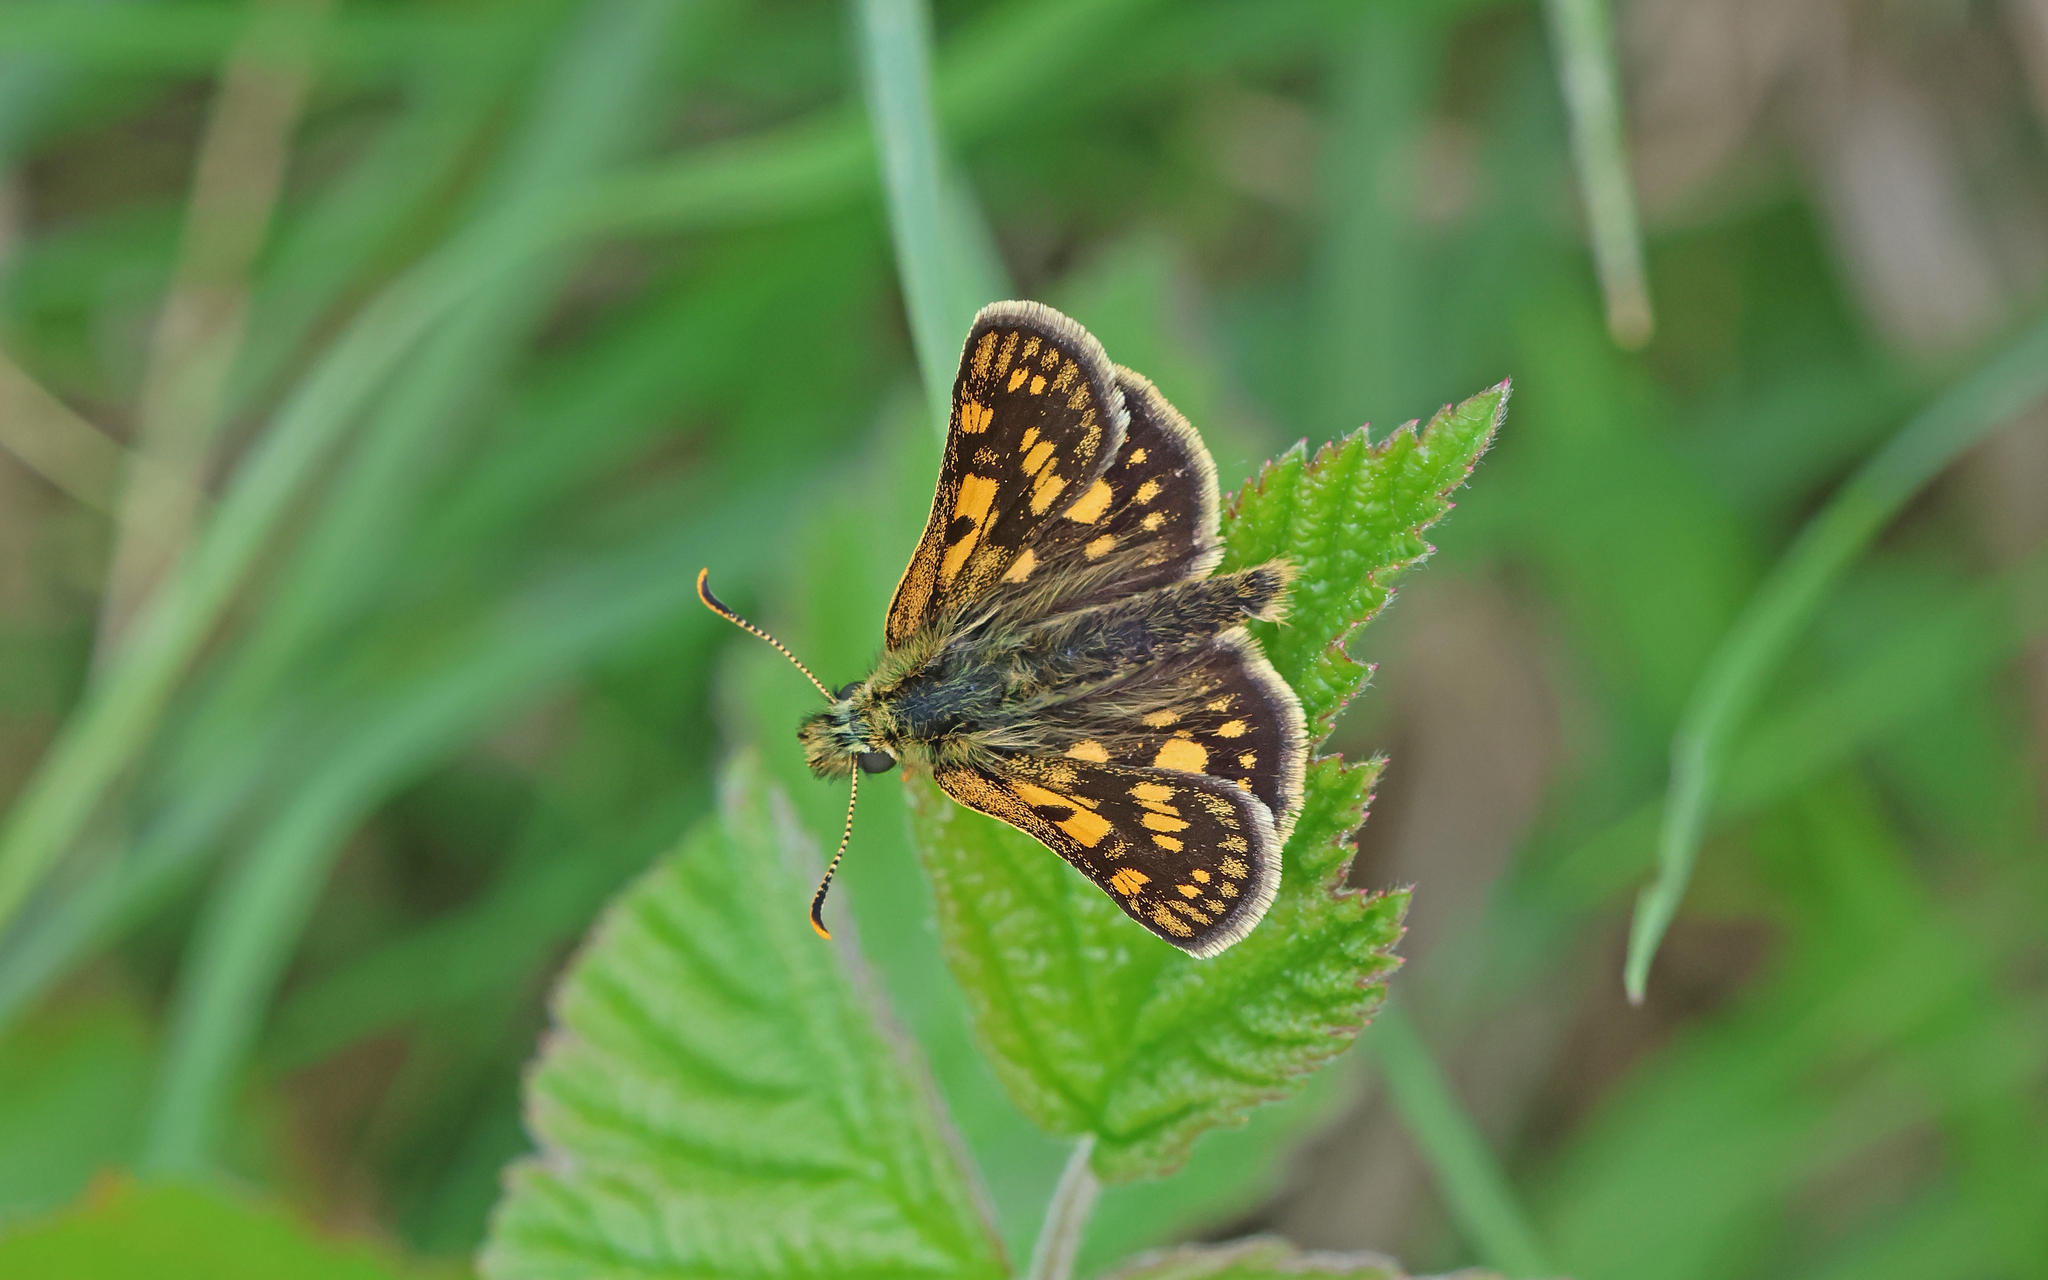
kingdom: Animalia
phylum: Arthropoda
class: Insecta
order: Lepidoptera
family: Hesperiidae
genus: Carterocephalus
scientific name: Carterocephalus palaemon
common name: Chequered skipper
